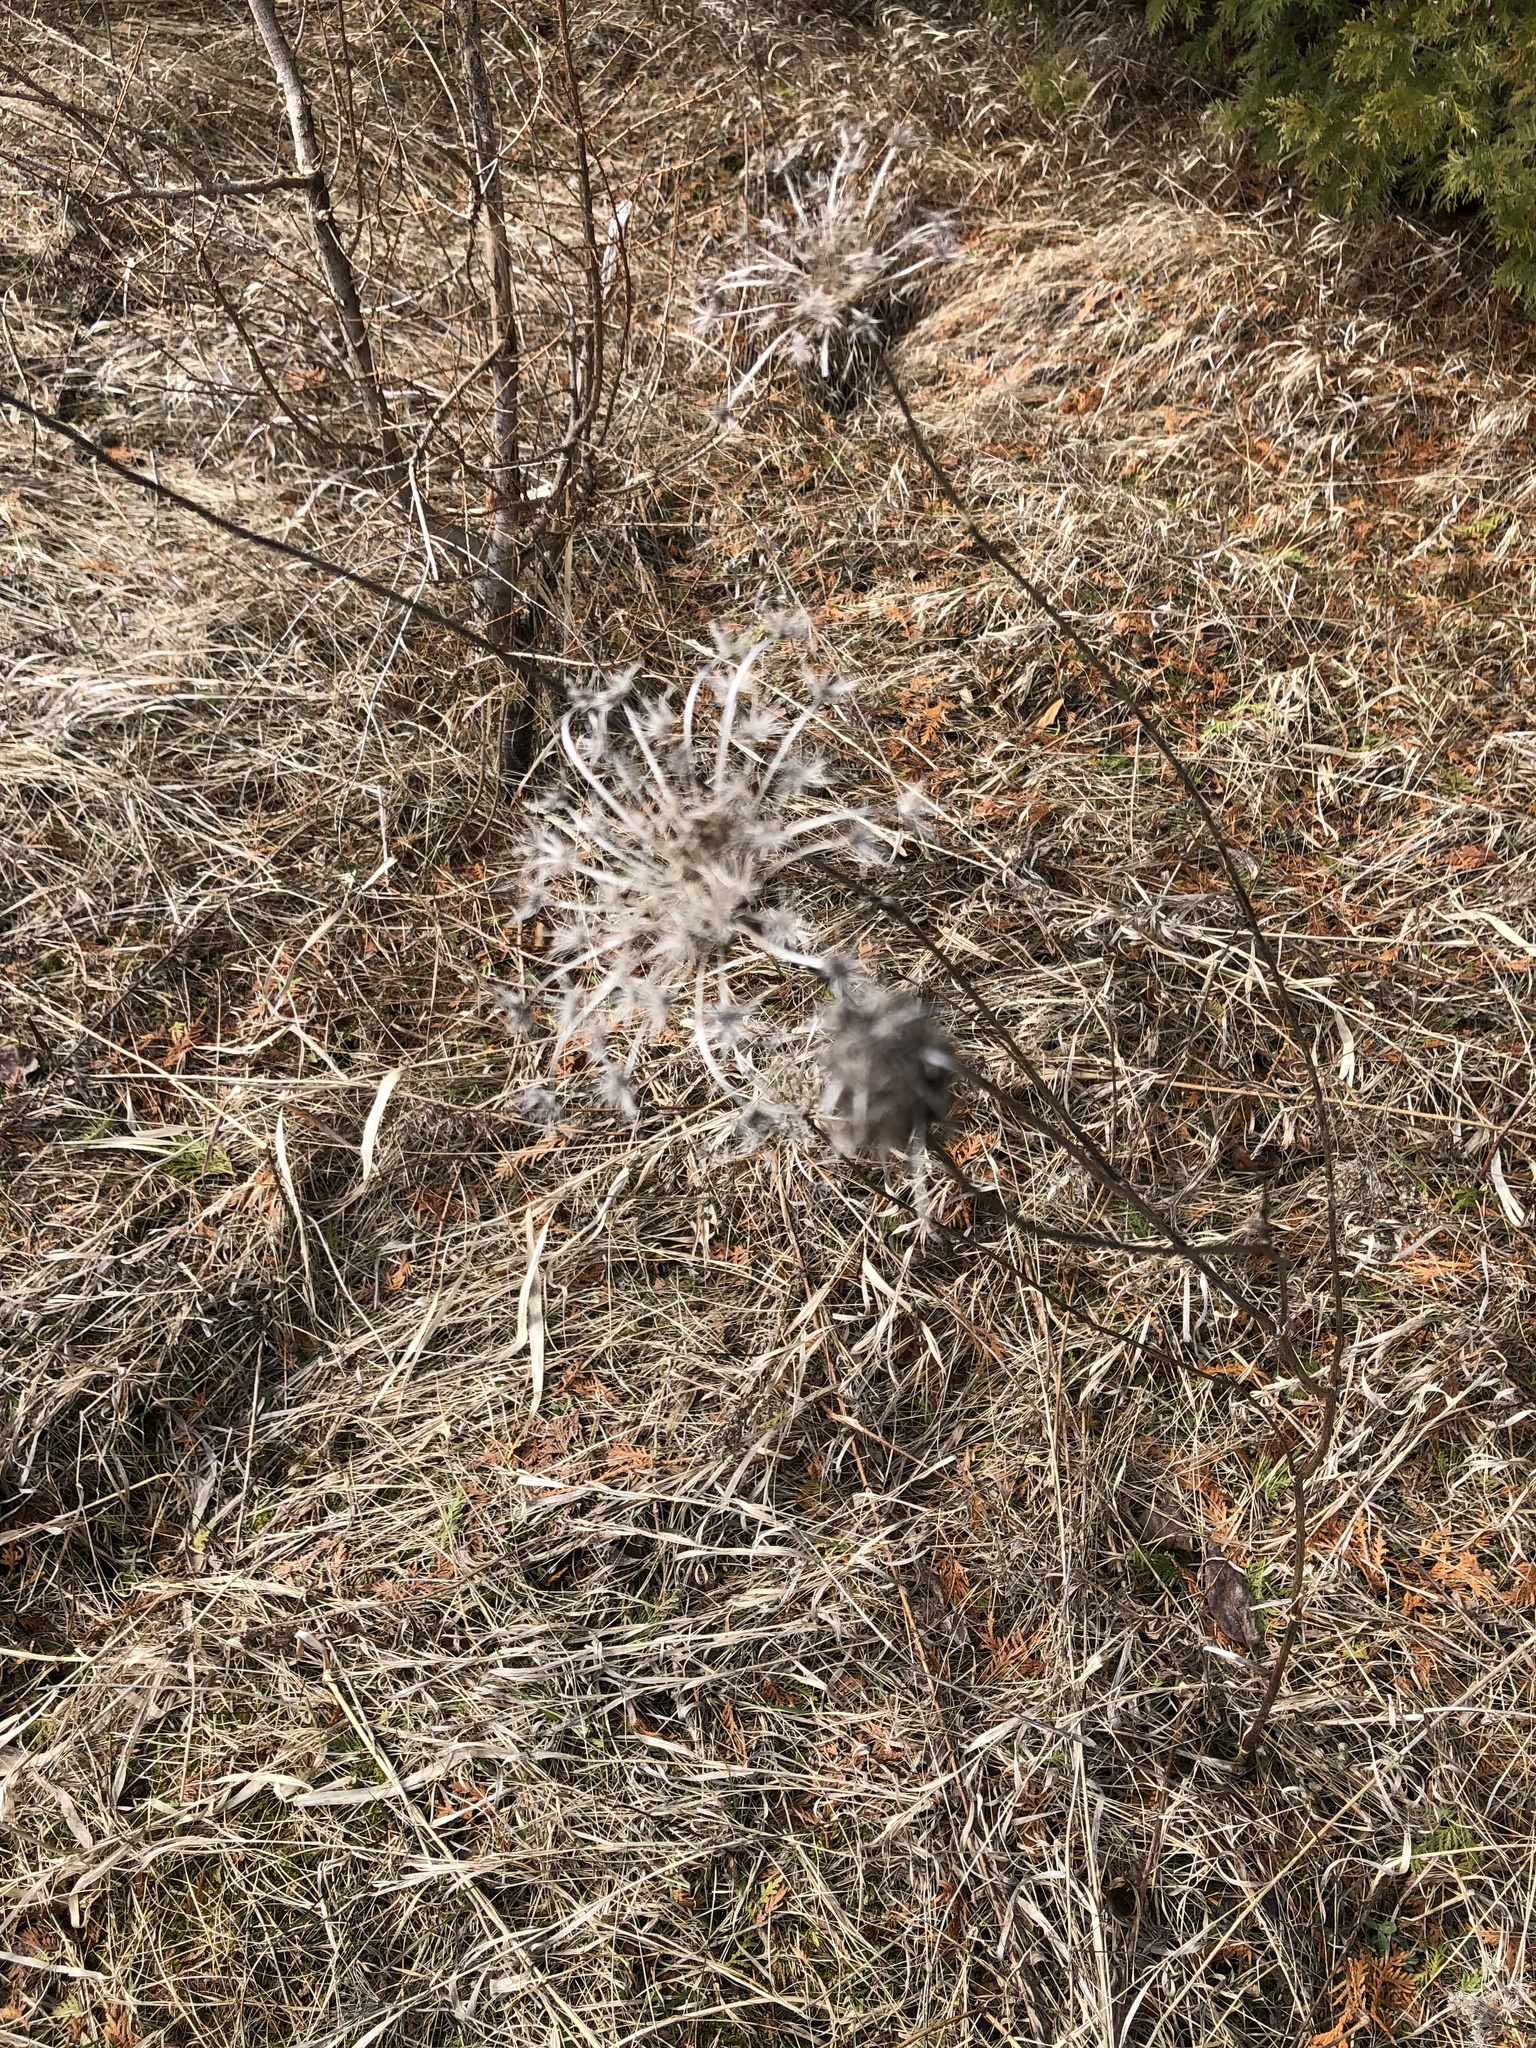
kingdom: Plantae
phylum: Tracheophyta
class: Magnoliopsida
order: Apiales
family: Apiaceae
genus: Daucus
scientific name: Daucus carota
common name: Wild carrot
